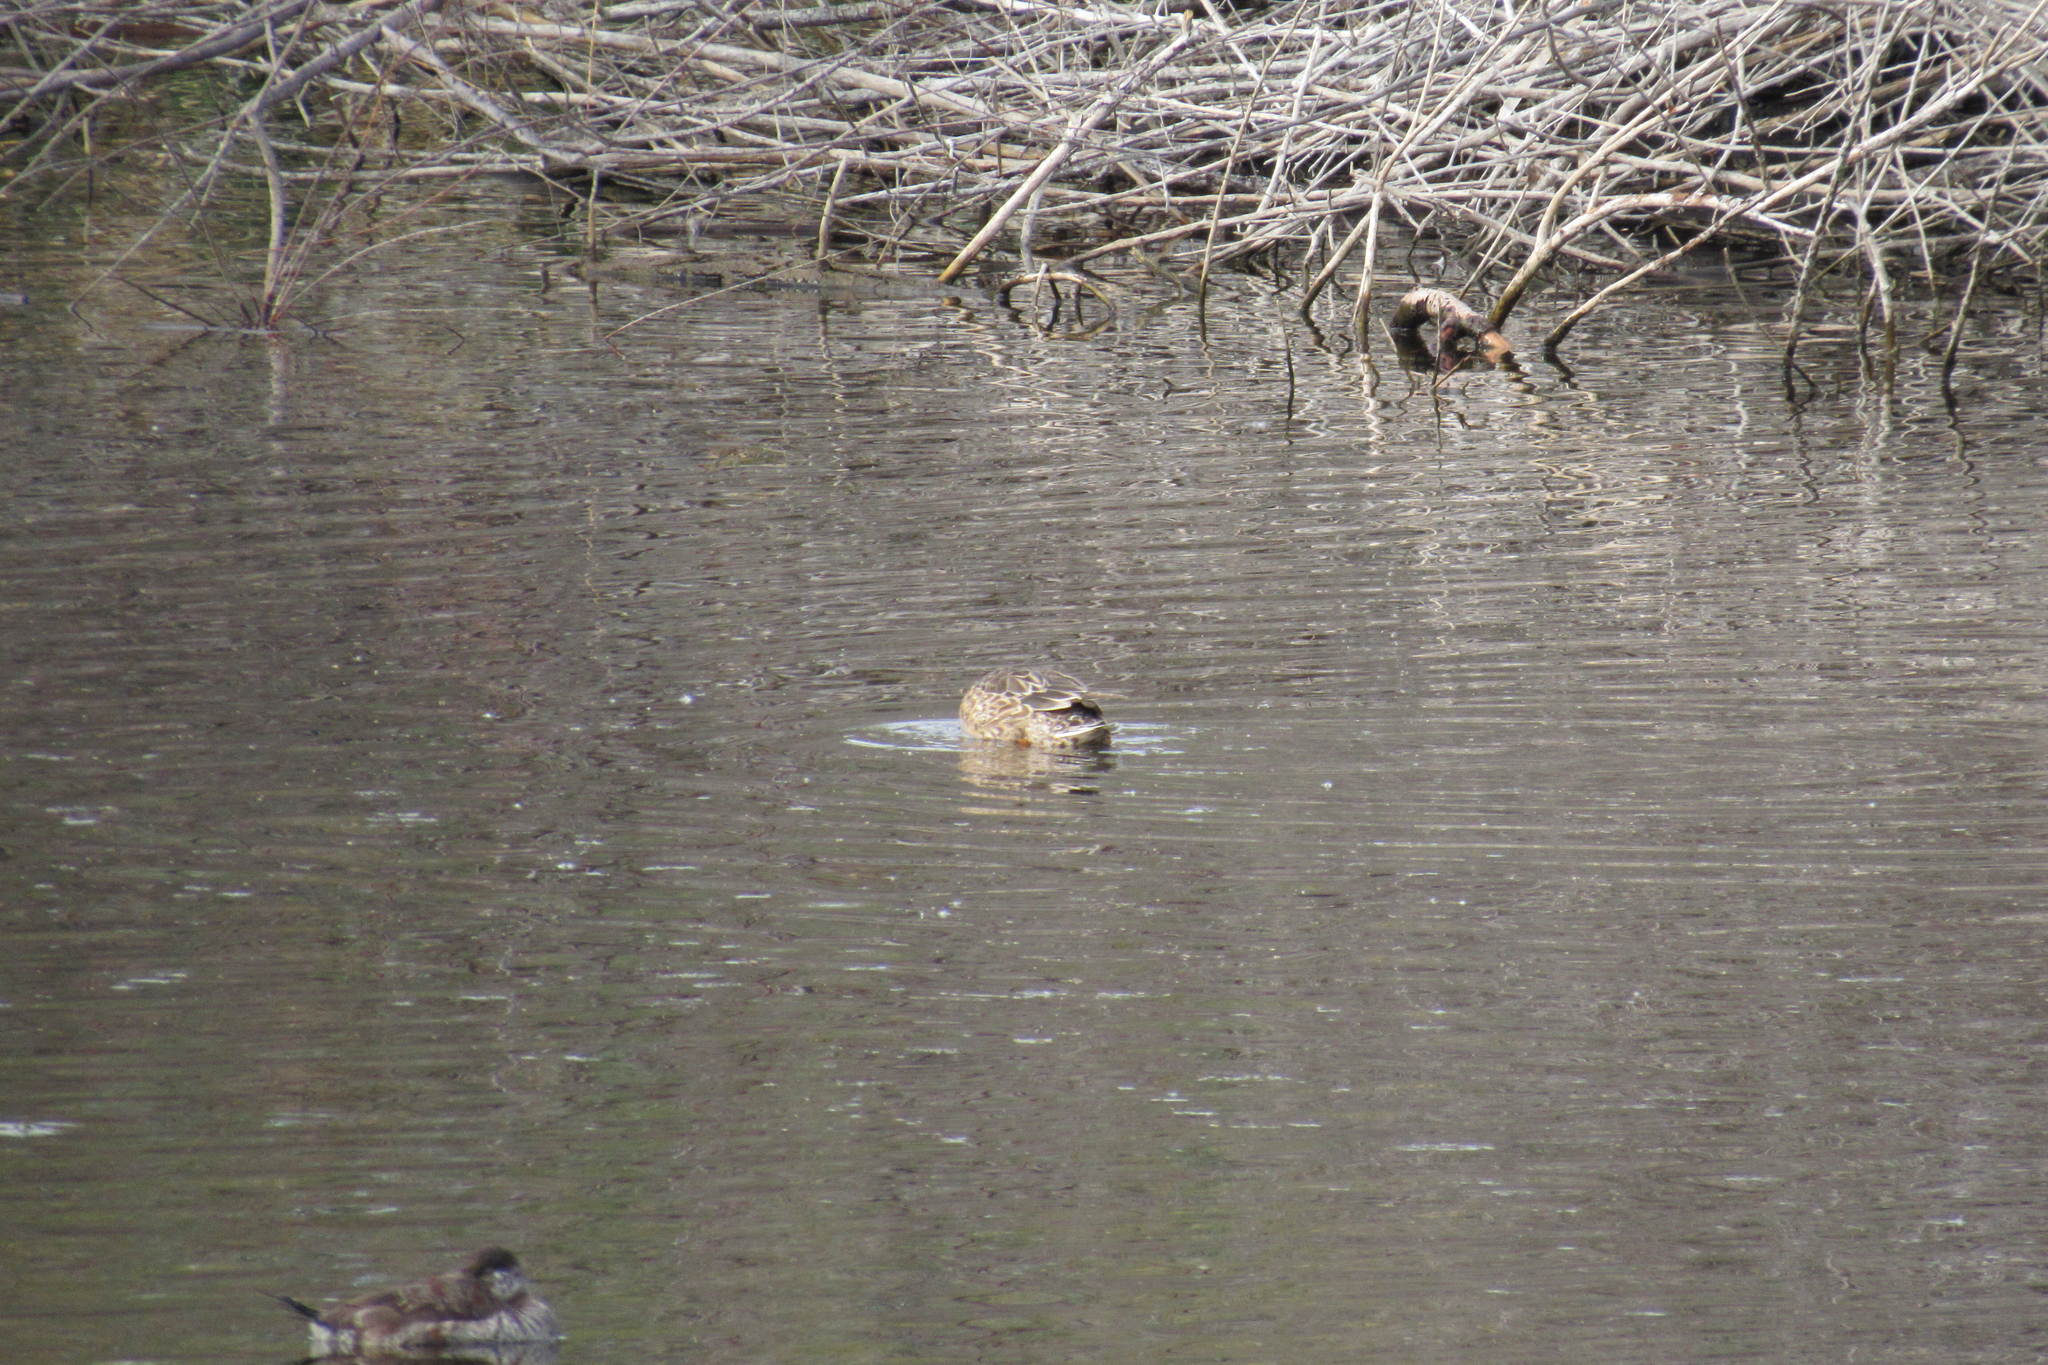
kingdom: Animalia
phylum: Chordata
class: Aves
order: Anseriformes
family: Anatidae
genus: Oxyura
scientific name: Oxyura jamaicensis
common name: Ruddy duck
